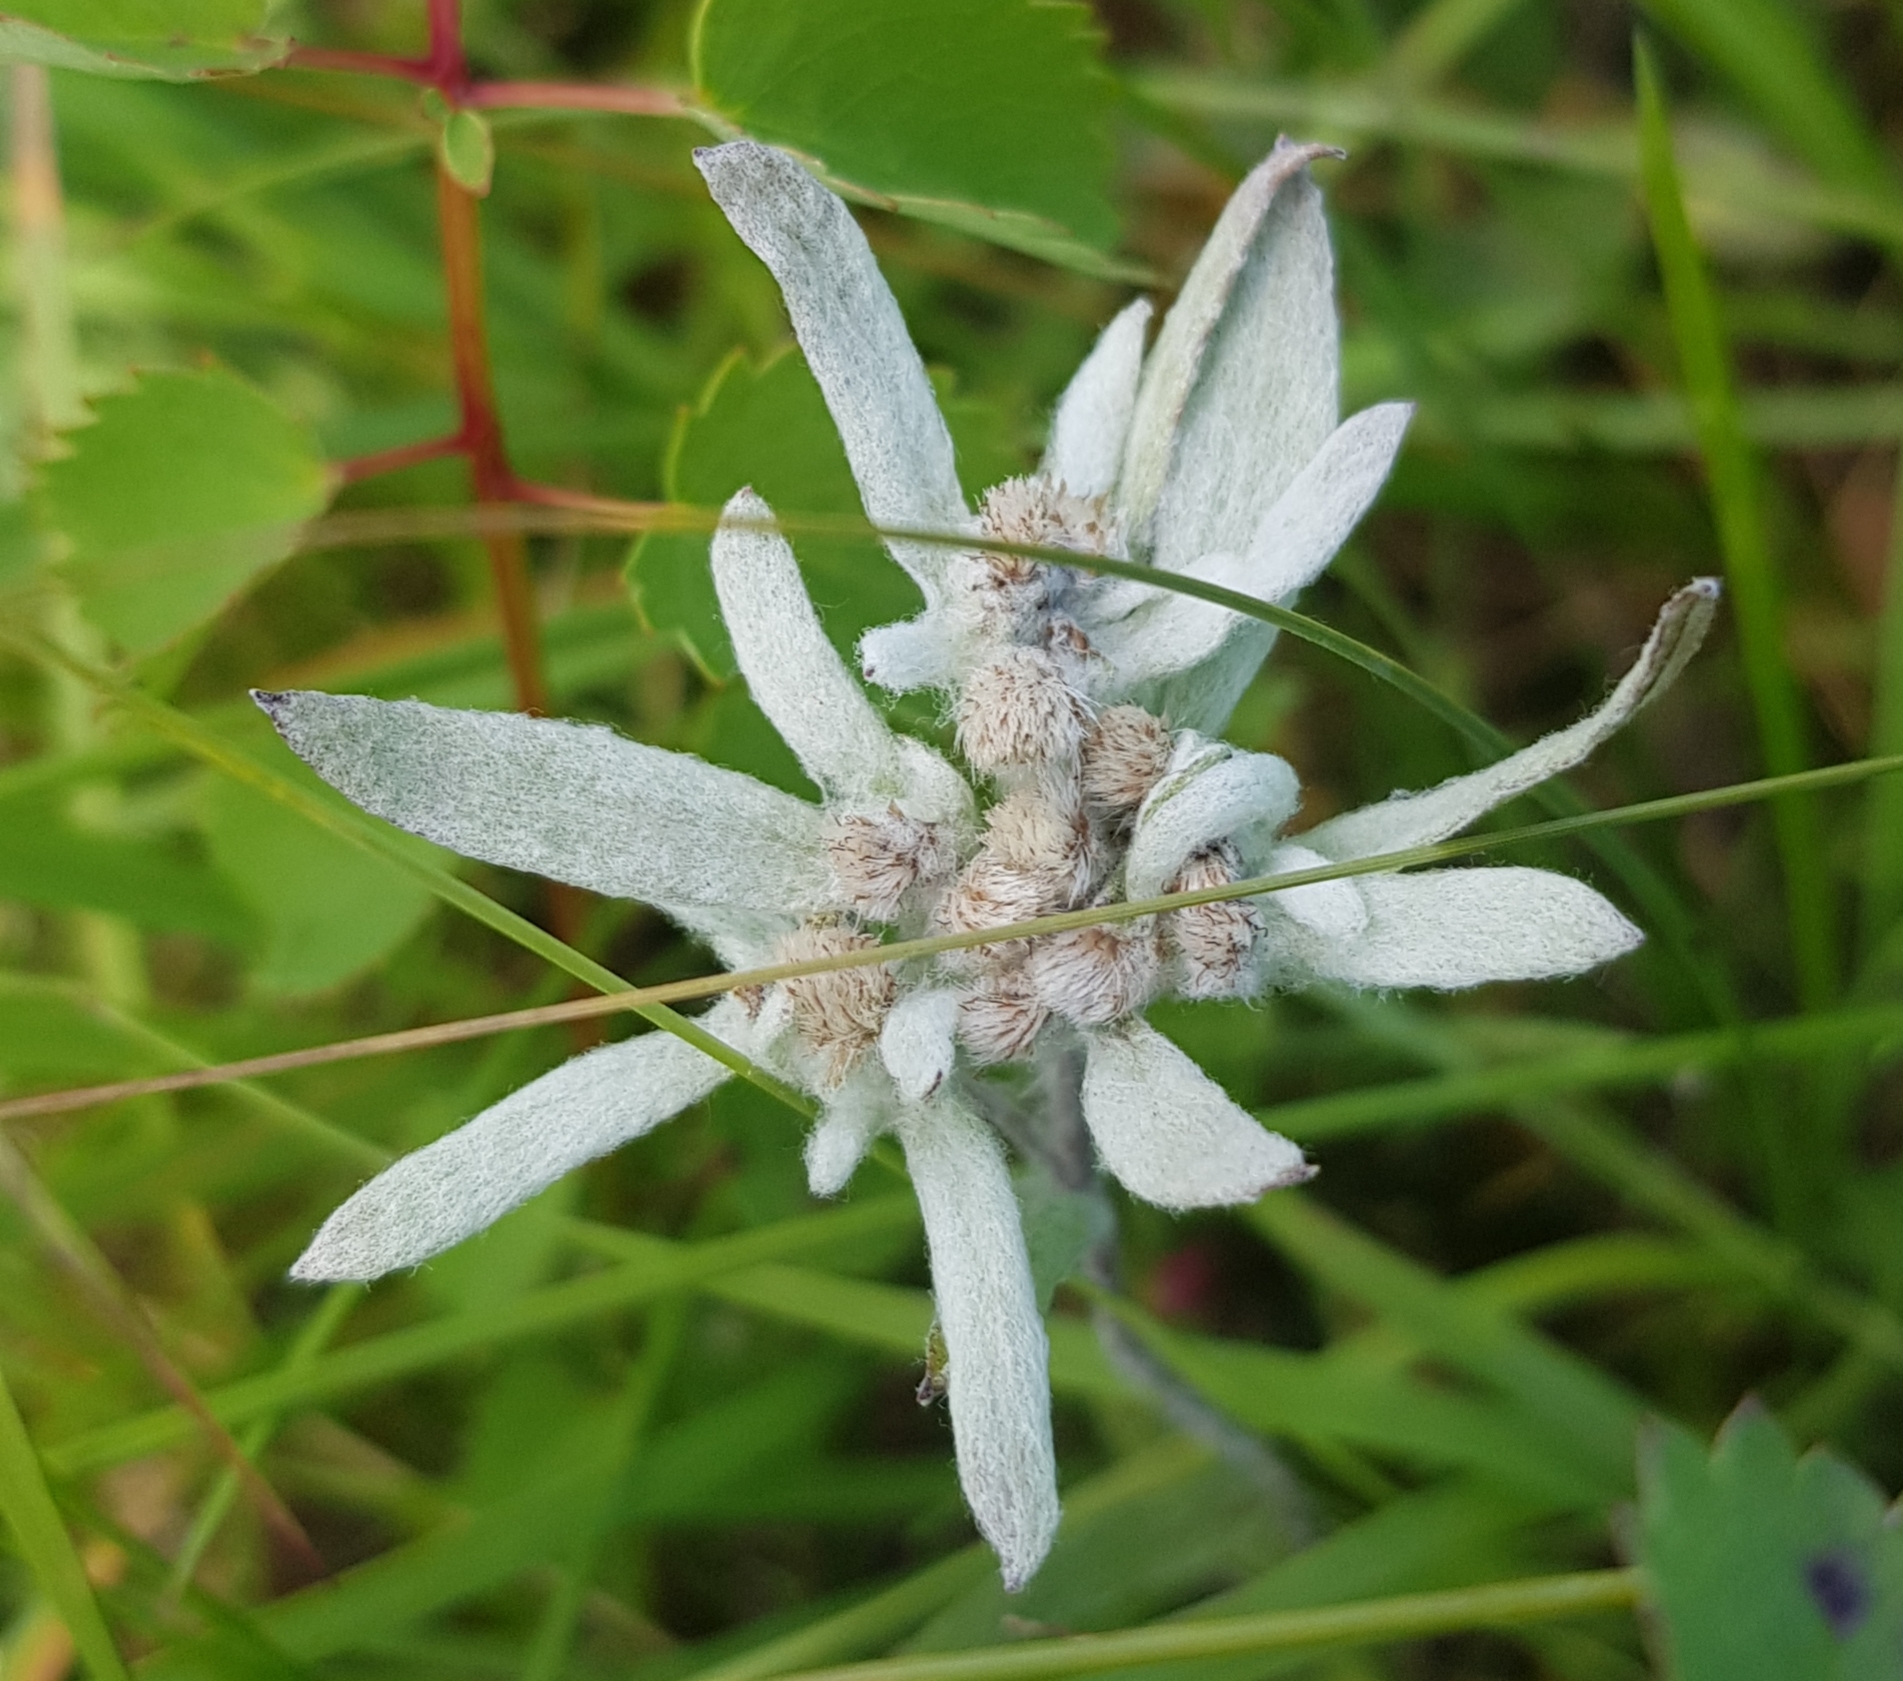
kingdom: Plantae
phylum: Tracheophyta
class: Magnoliopsida
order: Asterales
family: Asteraceae
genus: Leontopodium
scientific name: Leontopodium leontopodioides
